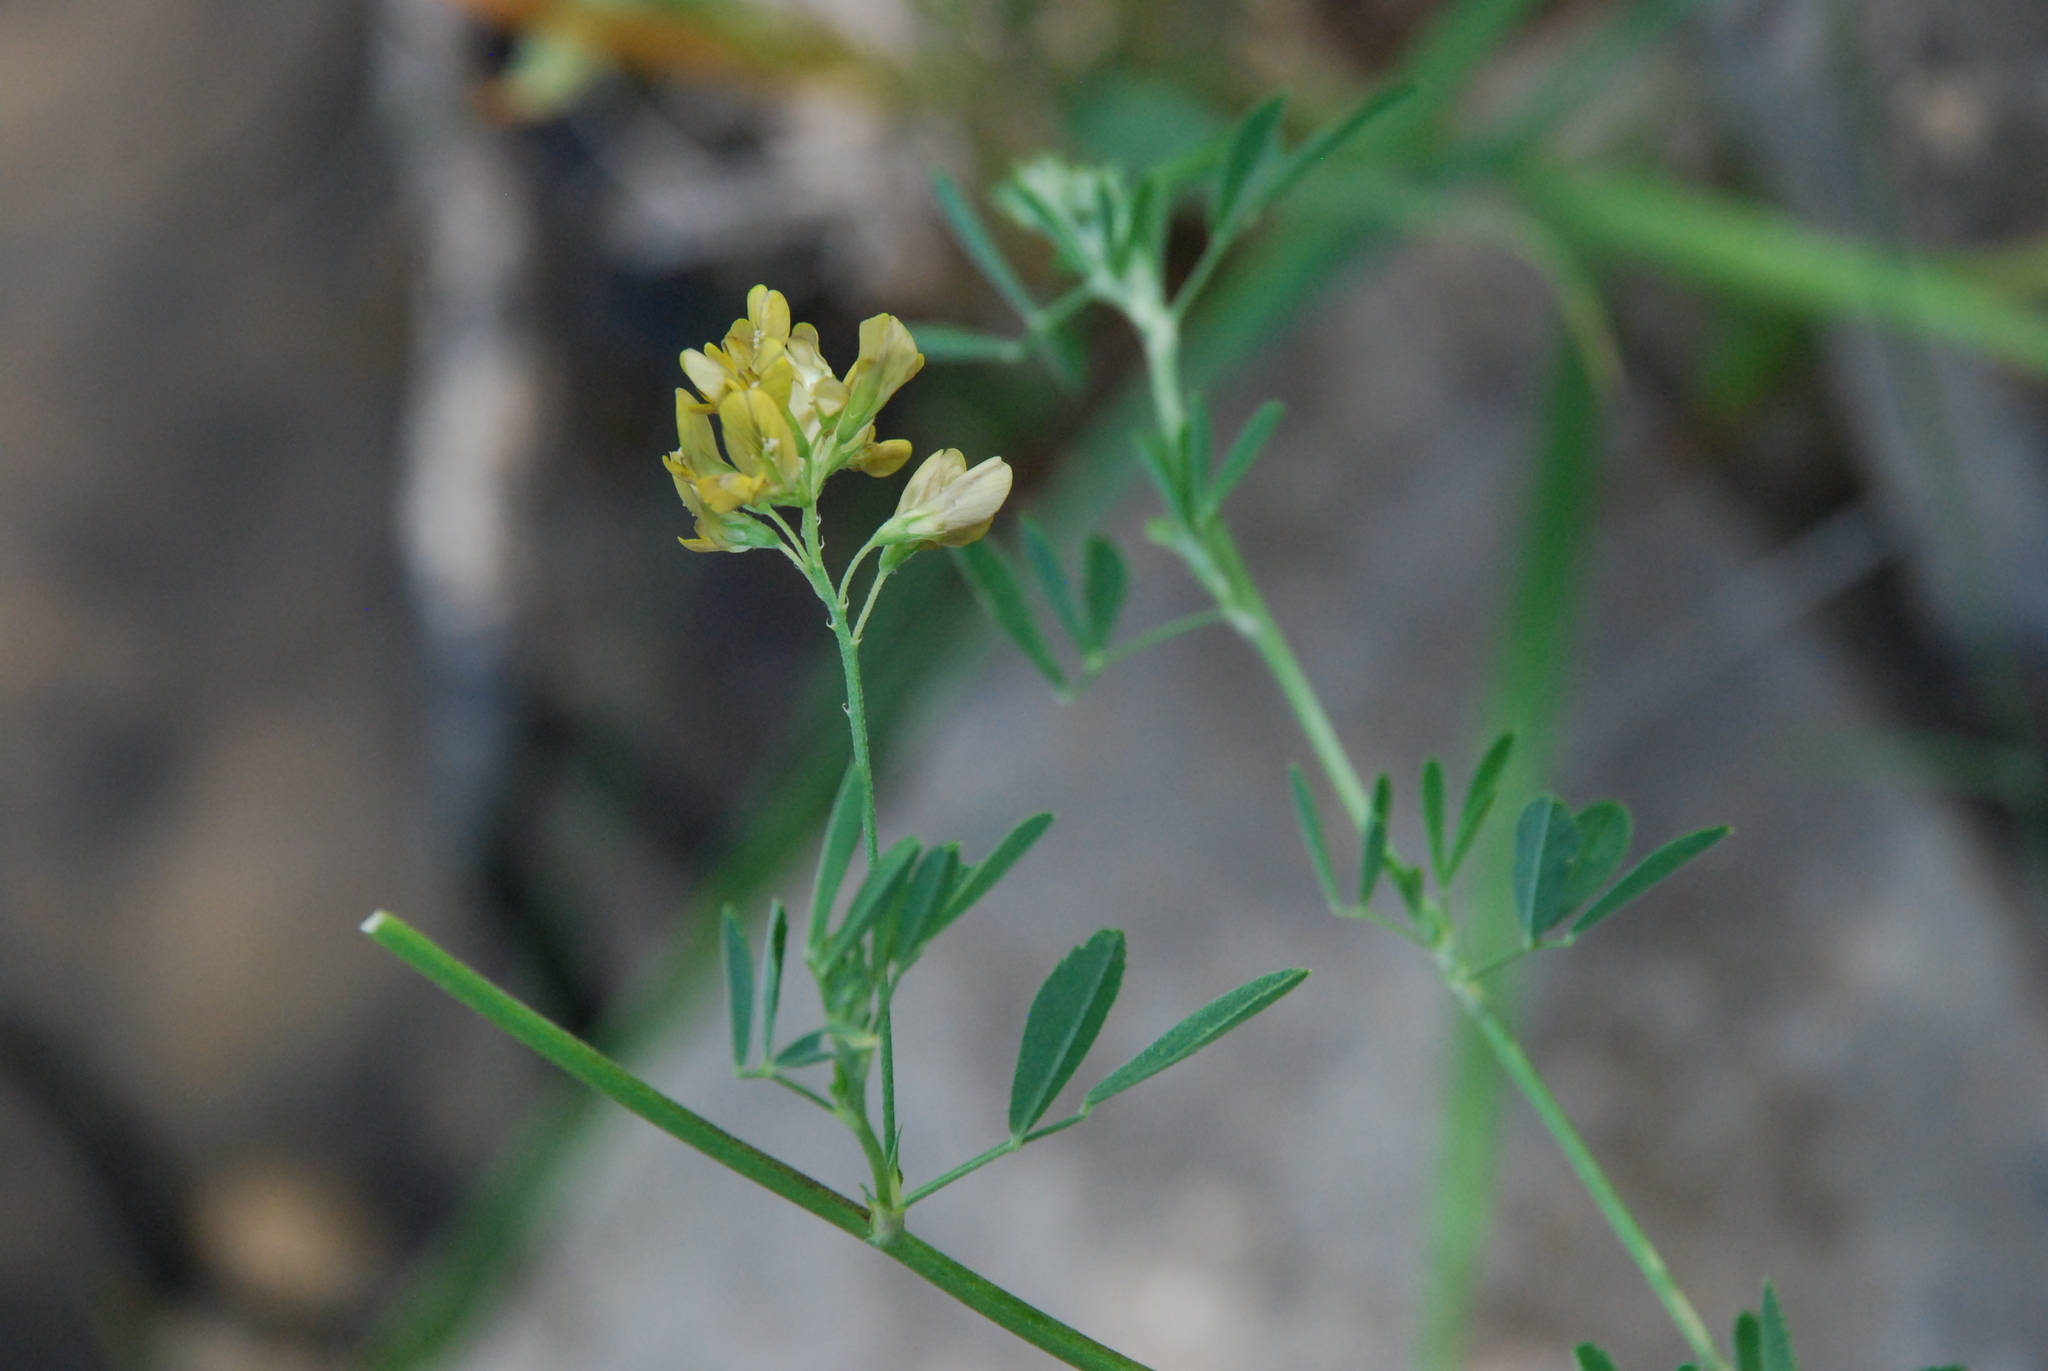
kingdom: Plantae
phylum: Tracheophyta
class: Magnoliopsida
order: Fabales
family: Fabaceae
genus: Medicago
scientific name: Medicago falcata
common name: Sickle medick
